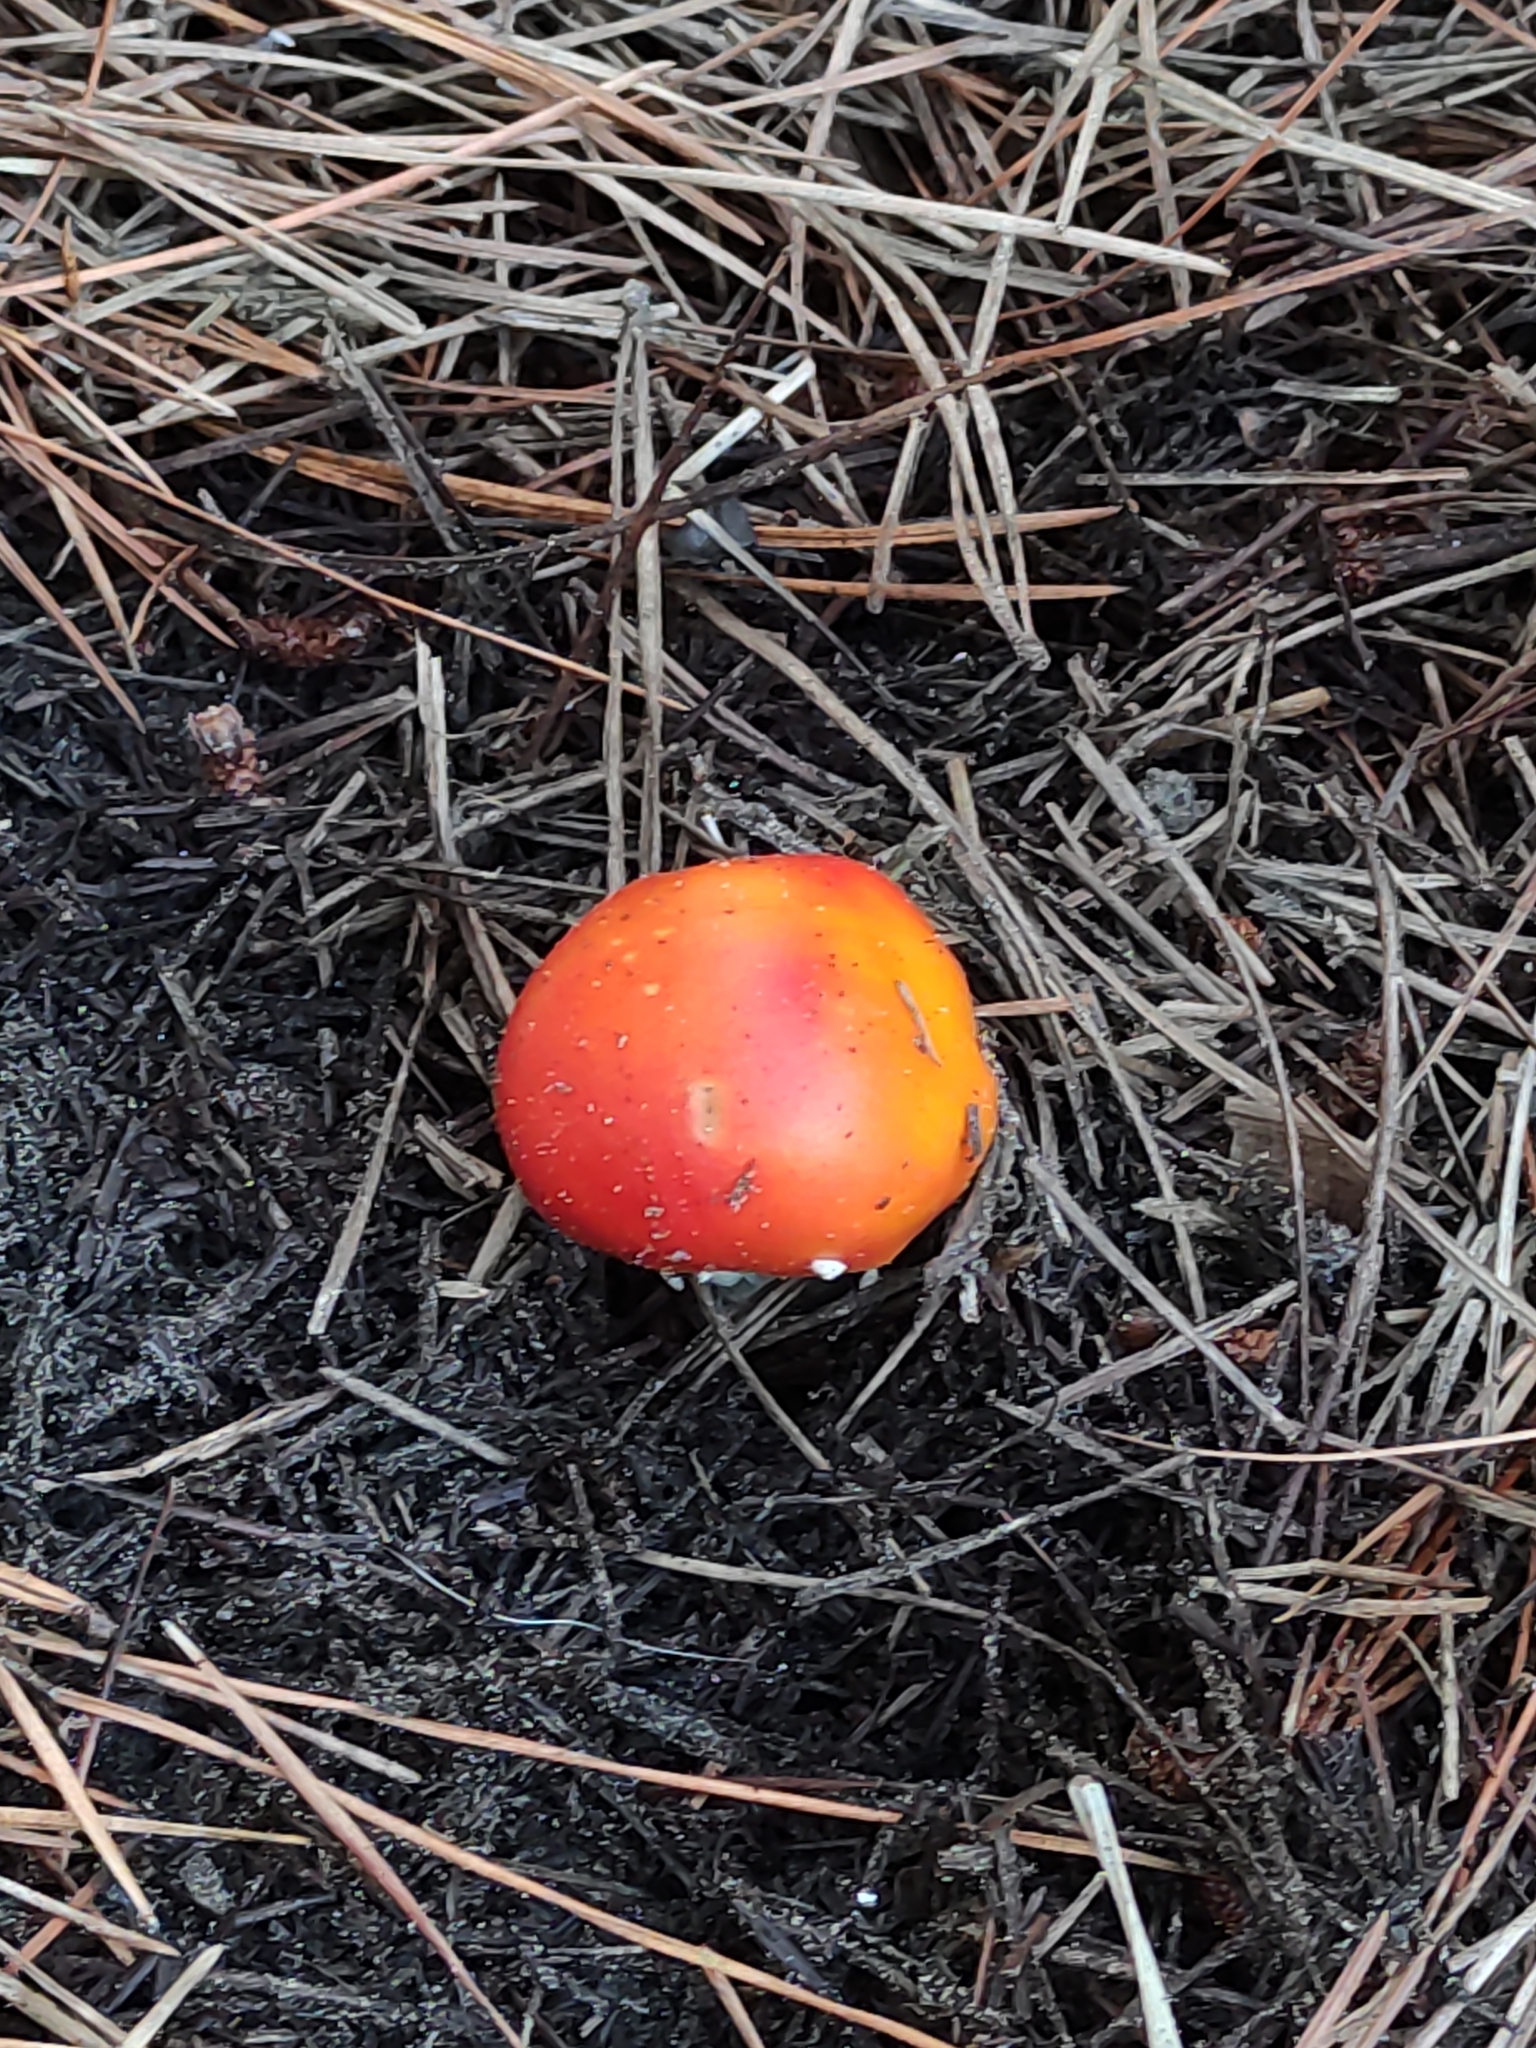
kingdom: Fungi
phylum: Basidiomycota
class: Agaricomycetes
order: Agaricales
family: Amanitaceae
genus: Amanita
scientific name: Amanita muscaria
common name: Fly agaric
